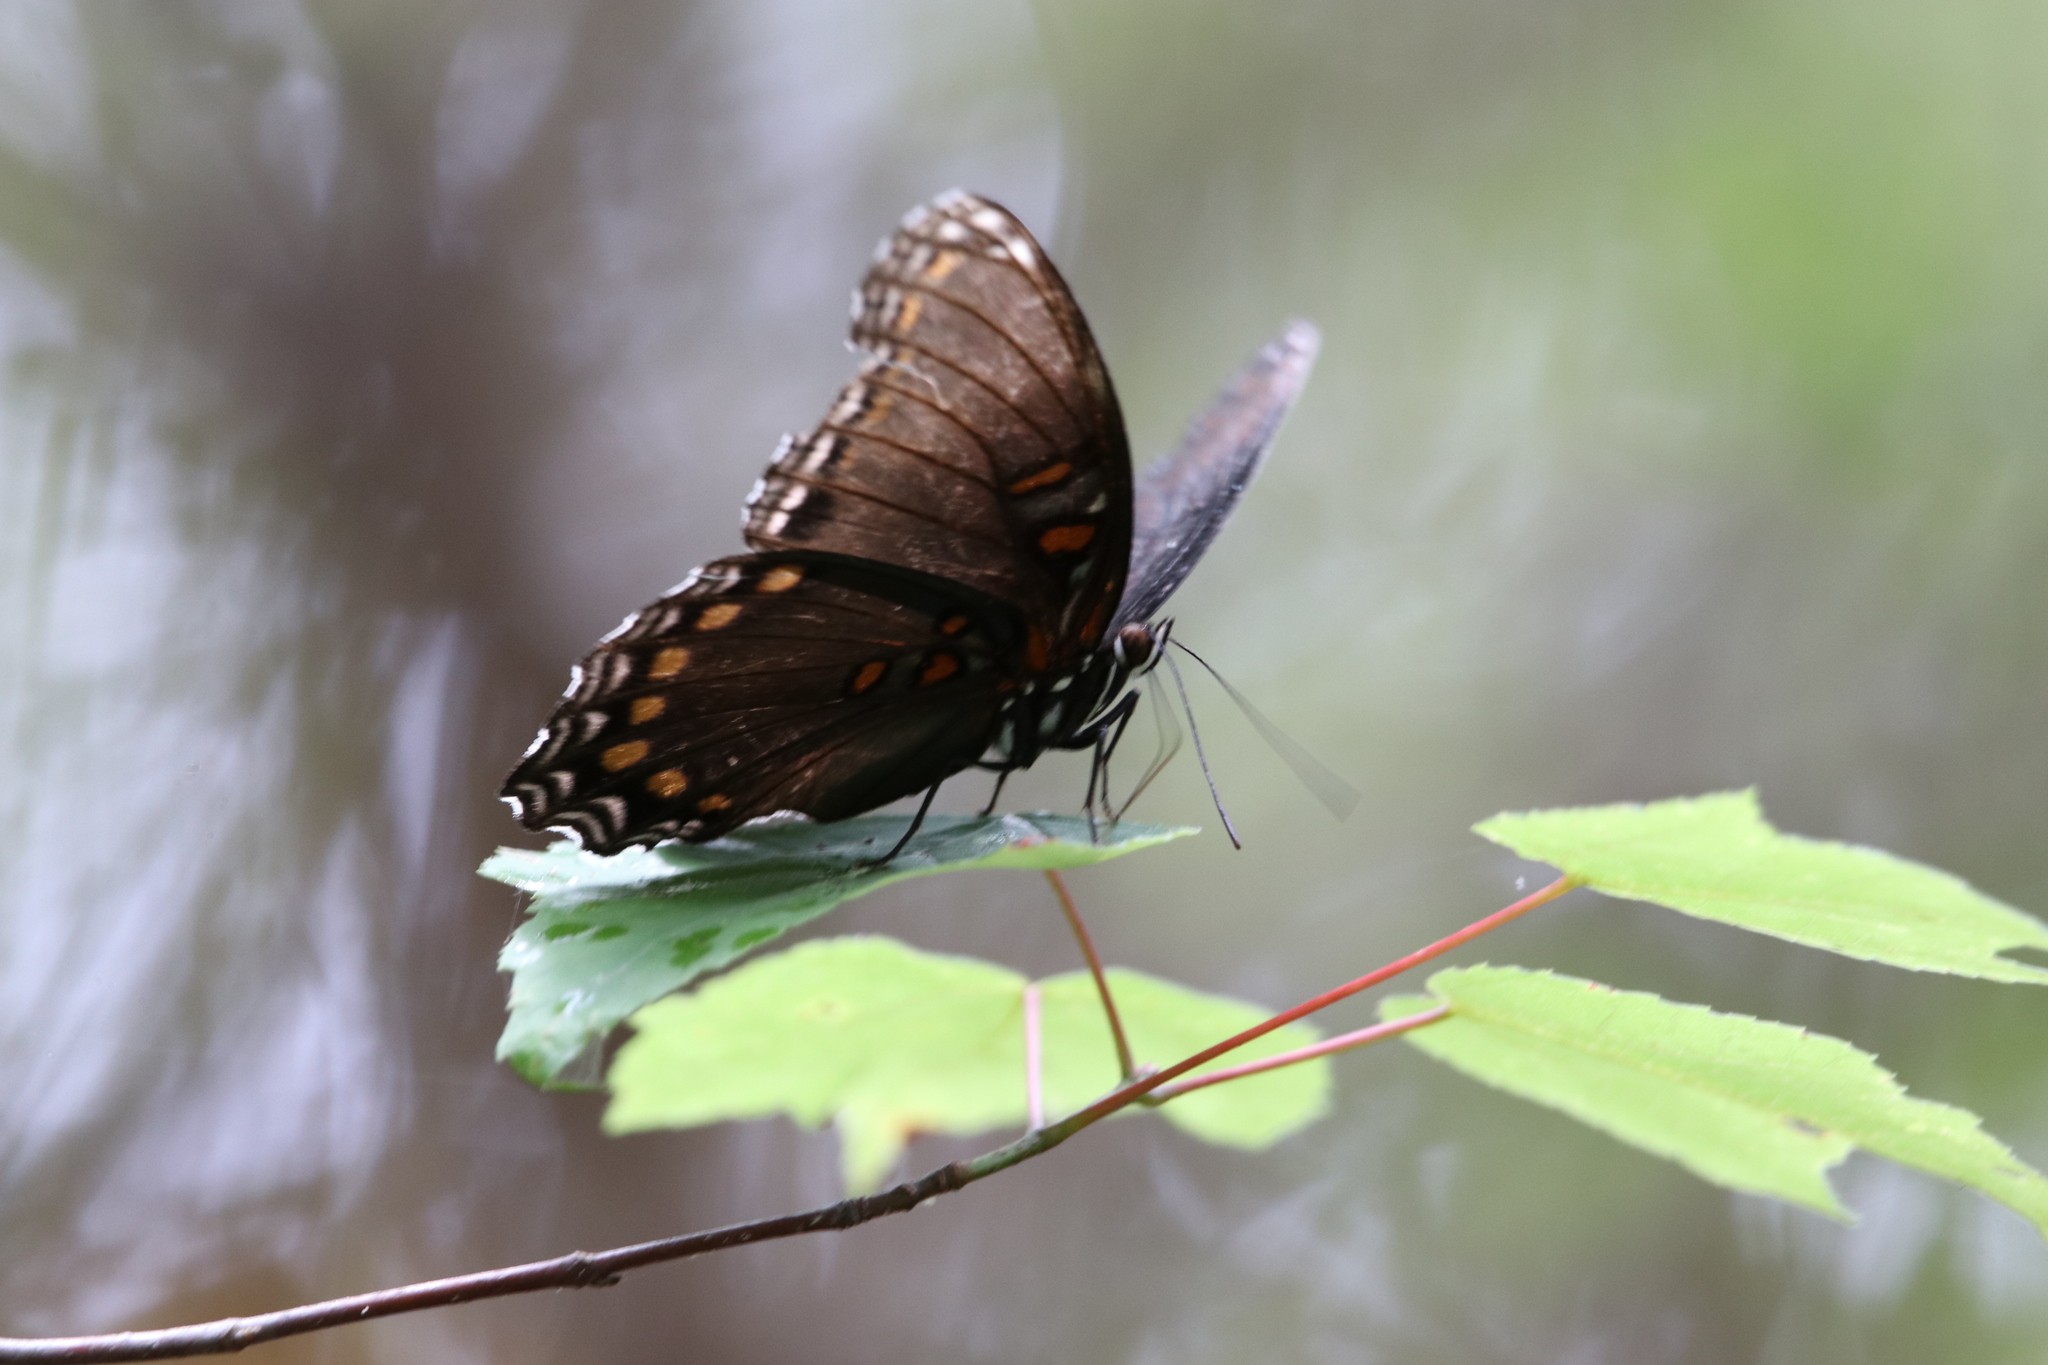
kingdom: Animalia
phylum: Arthropoda
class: Insecta
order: Lepidoptera
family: Nymphalidae
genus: Limenitis
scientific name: Limenitis astyanax
